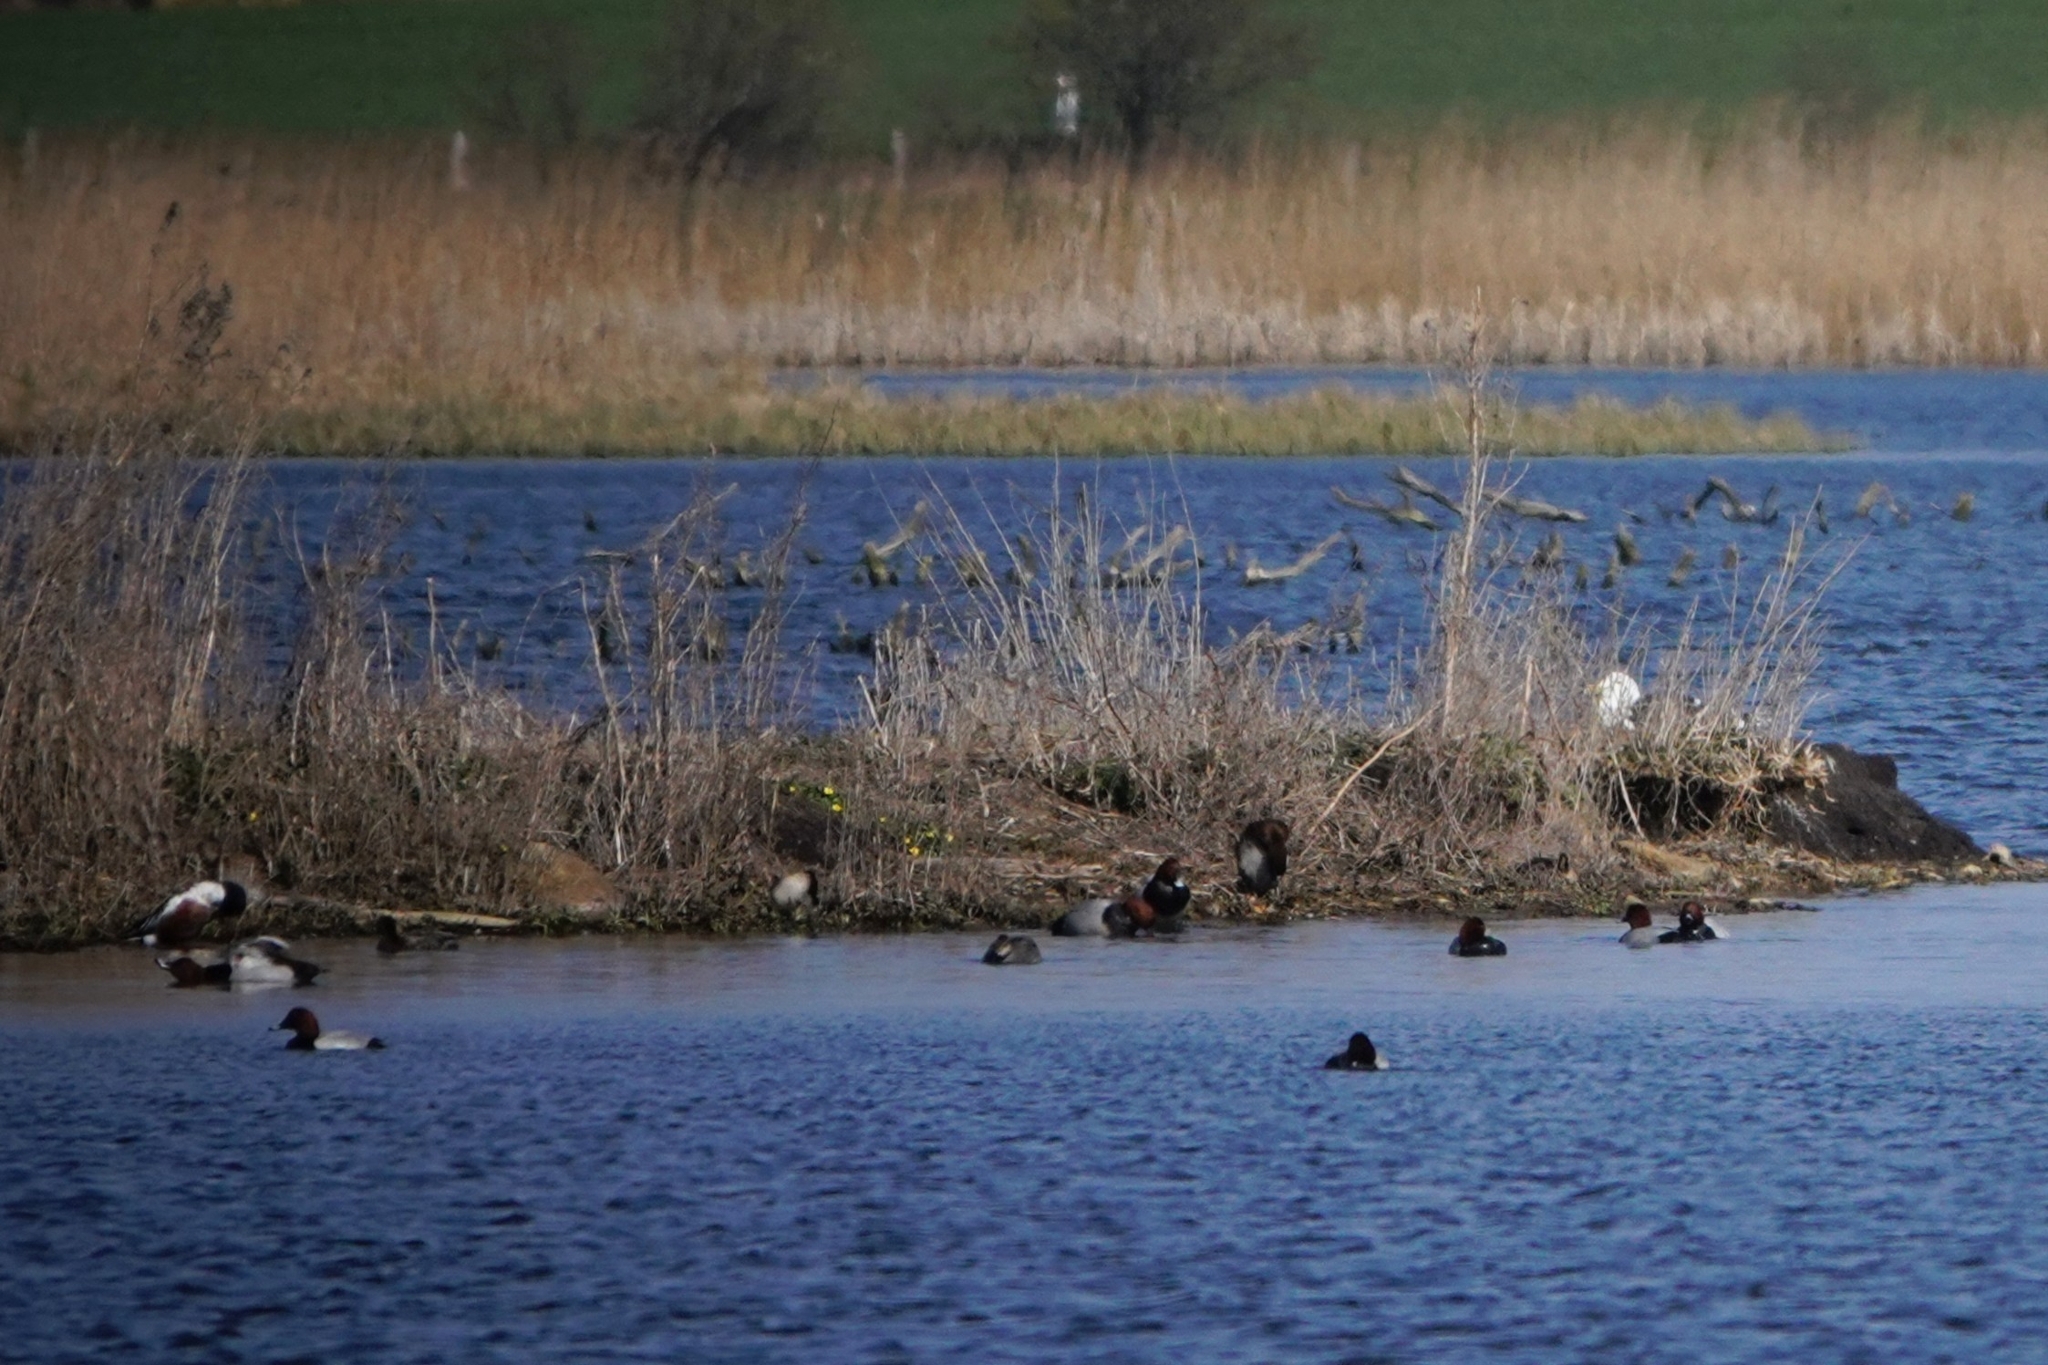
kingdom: Animalia
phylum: Chordata
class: Aves
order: Anseriformes
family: Anatidae
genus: Aythya
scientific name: Aythya ferina
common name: Common pochard
